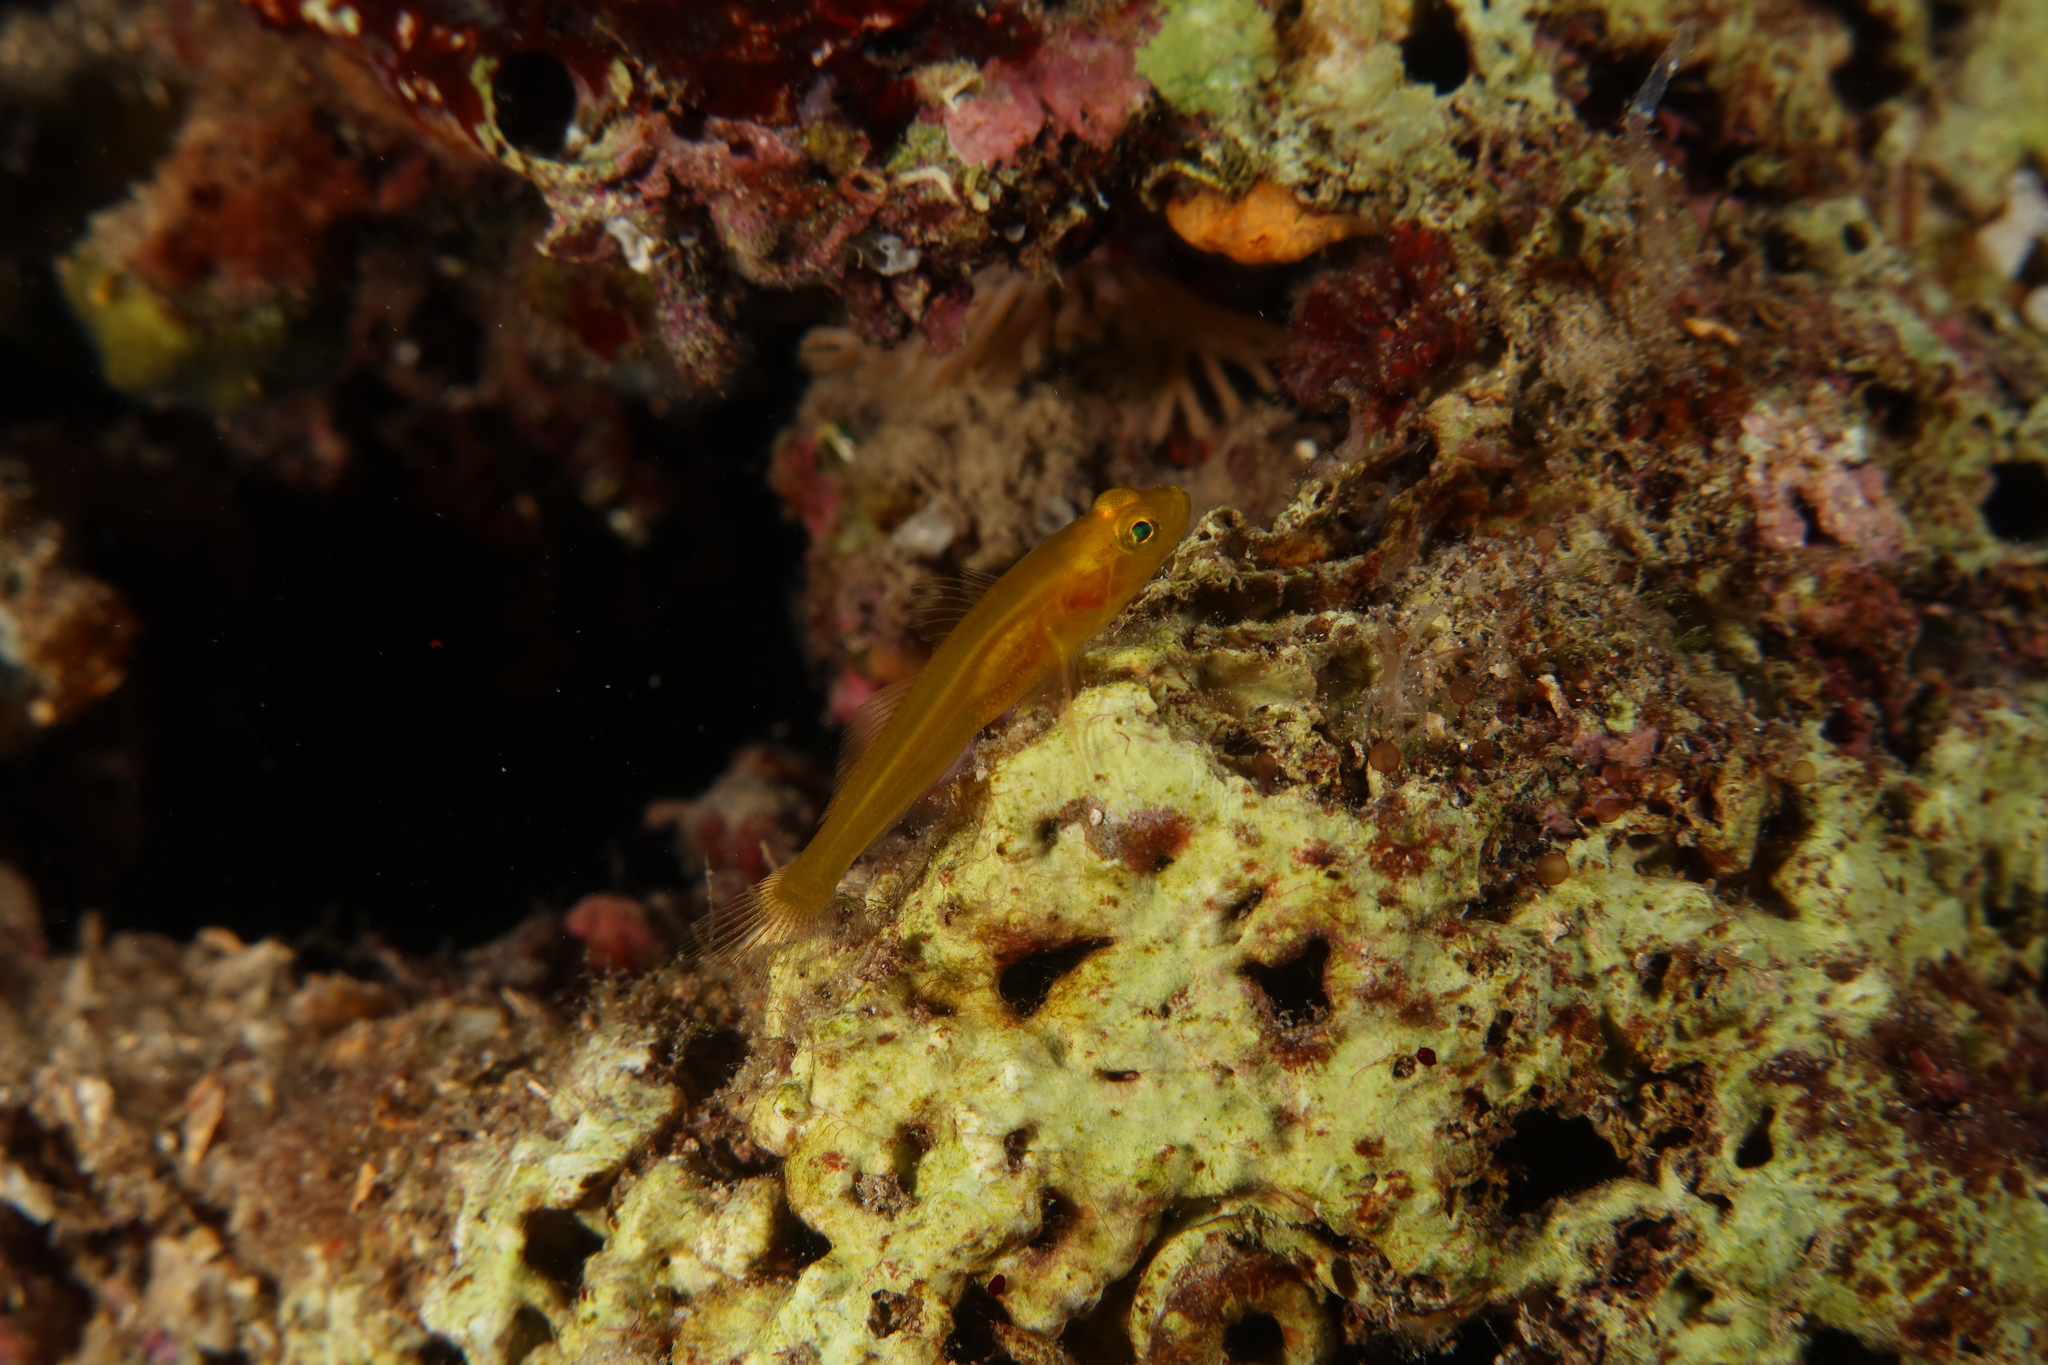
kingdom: Animalia
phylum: Chordata
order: Perciformes
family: Gobiidae
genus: Gobius
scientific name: Gobius auratus
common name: Golden goby
